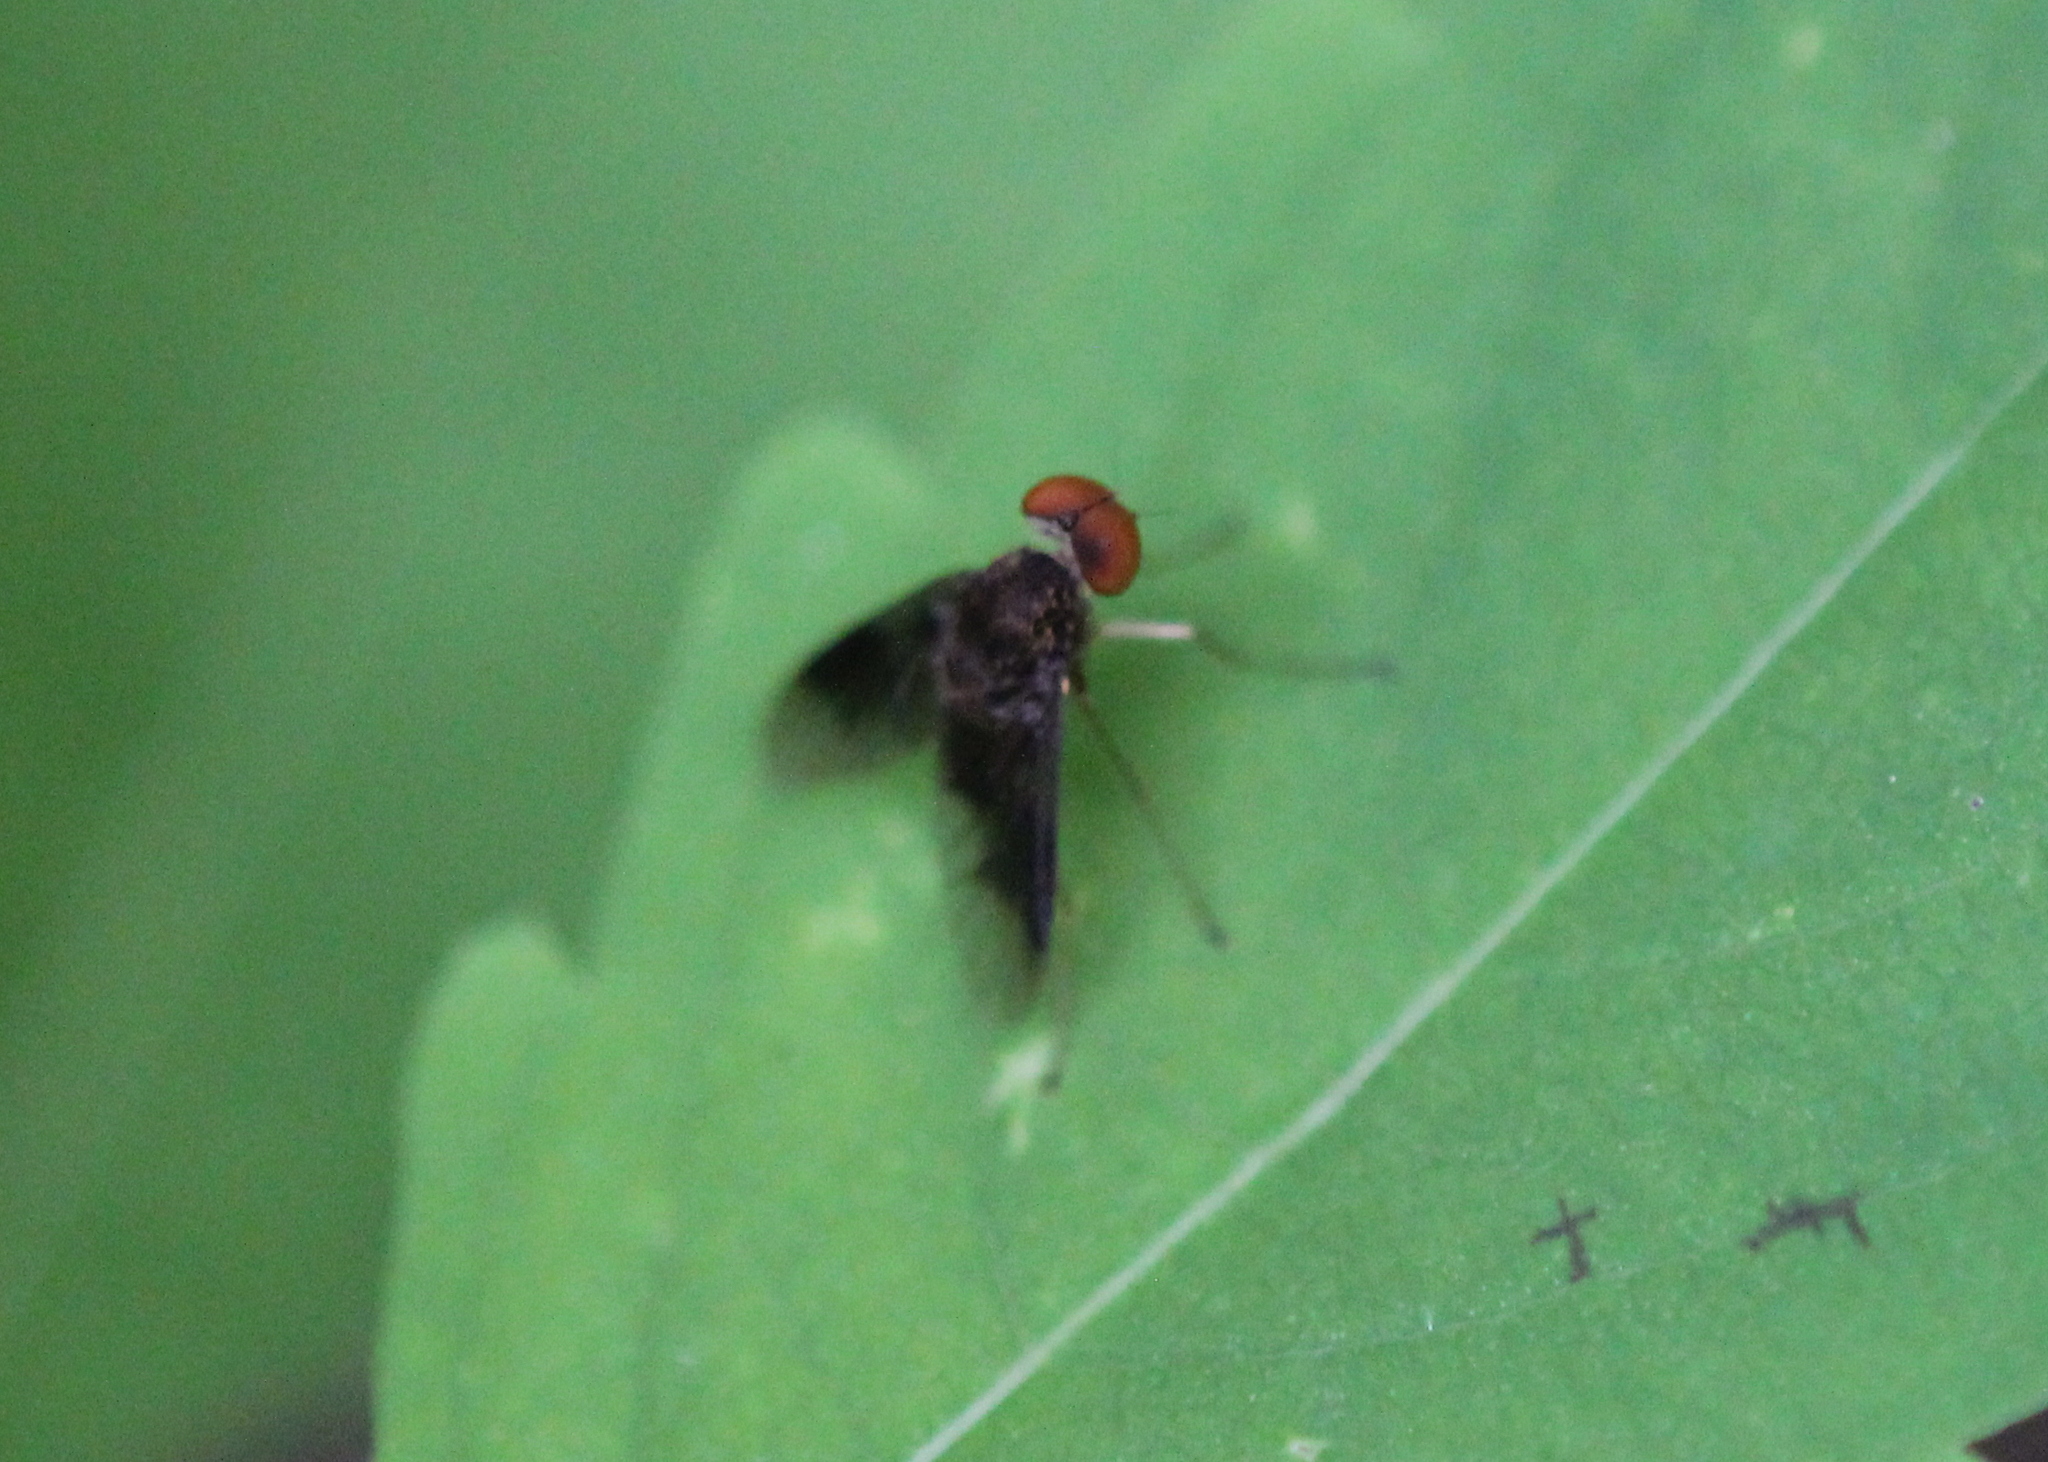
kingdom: Animalia
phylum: Arthropoda
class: Insecta
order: Diptera
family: Rhagionidae
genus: Chrysopilus
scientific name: Chrysopilus quadratus
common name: Quadrate snipe fly
